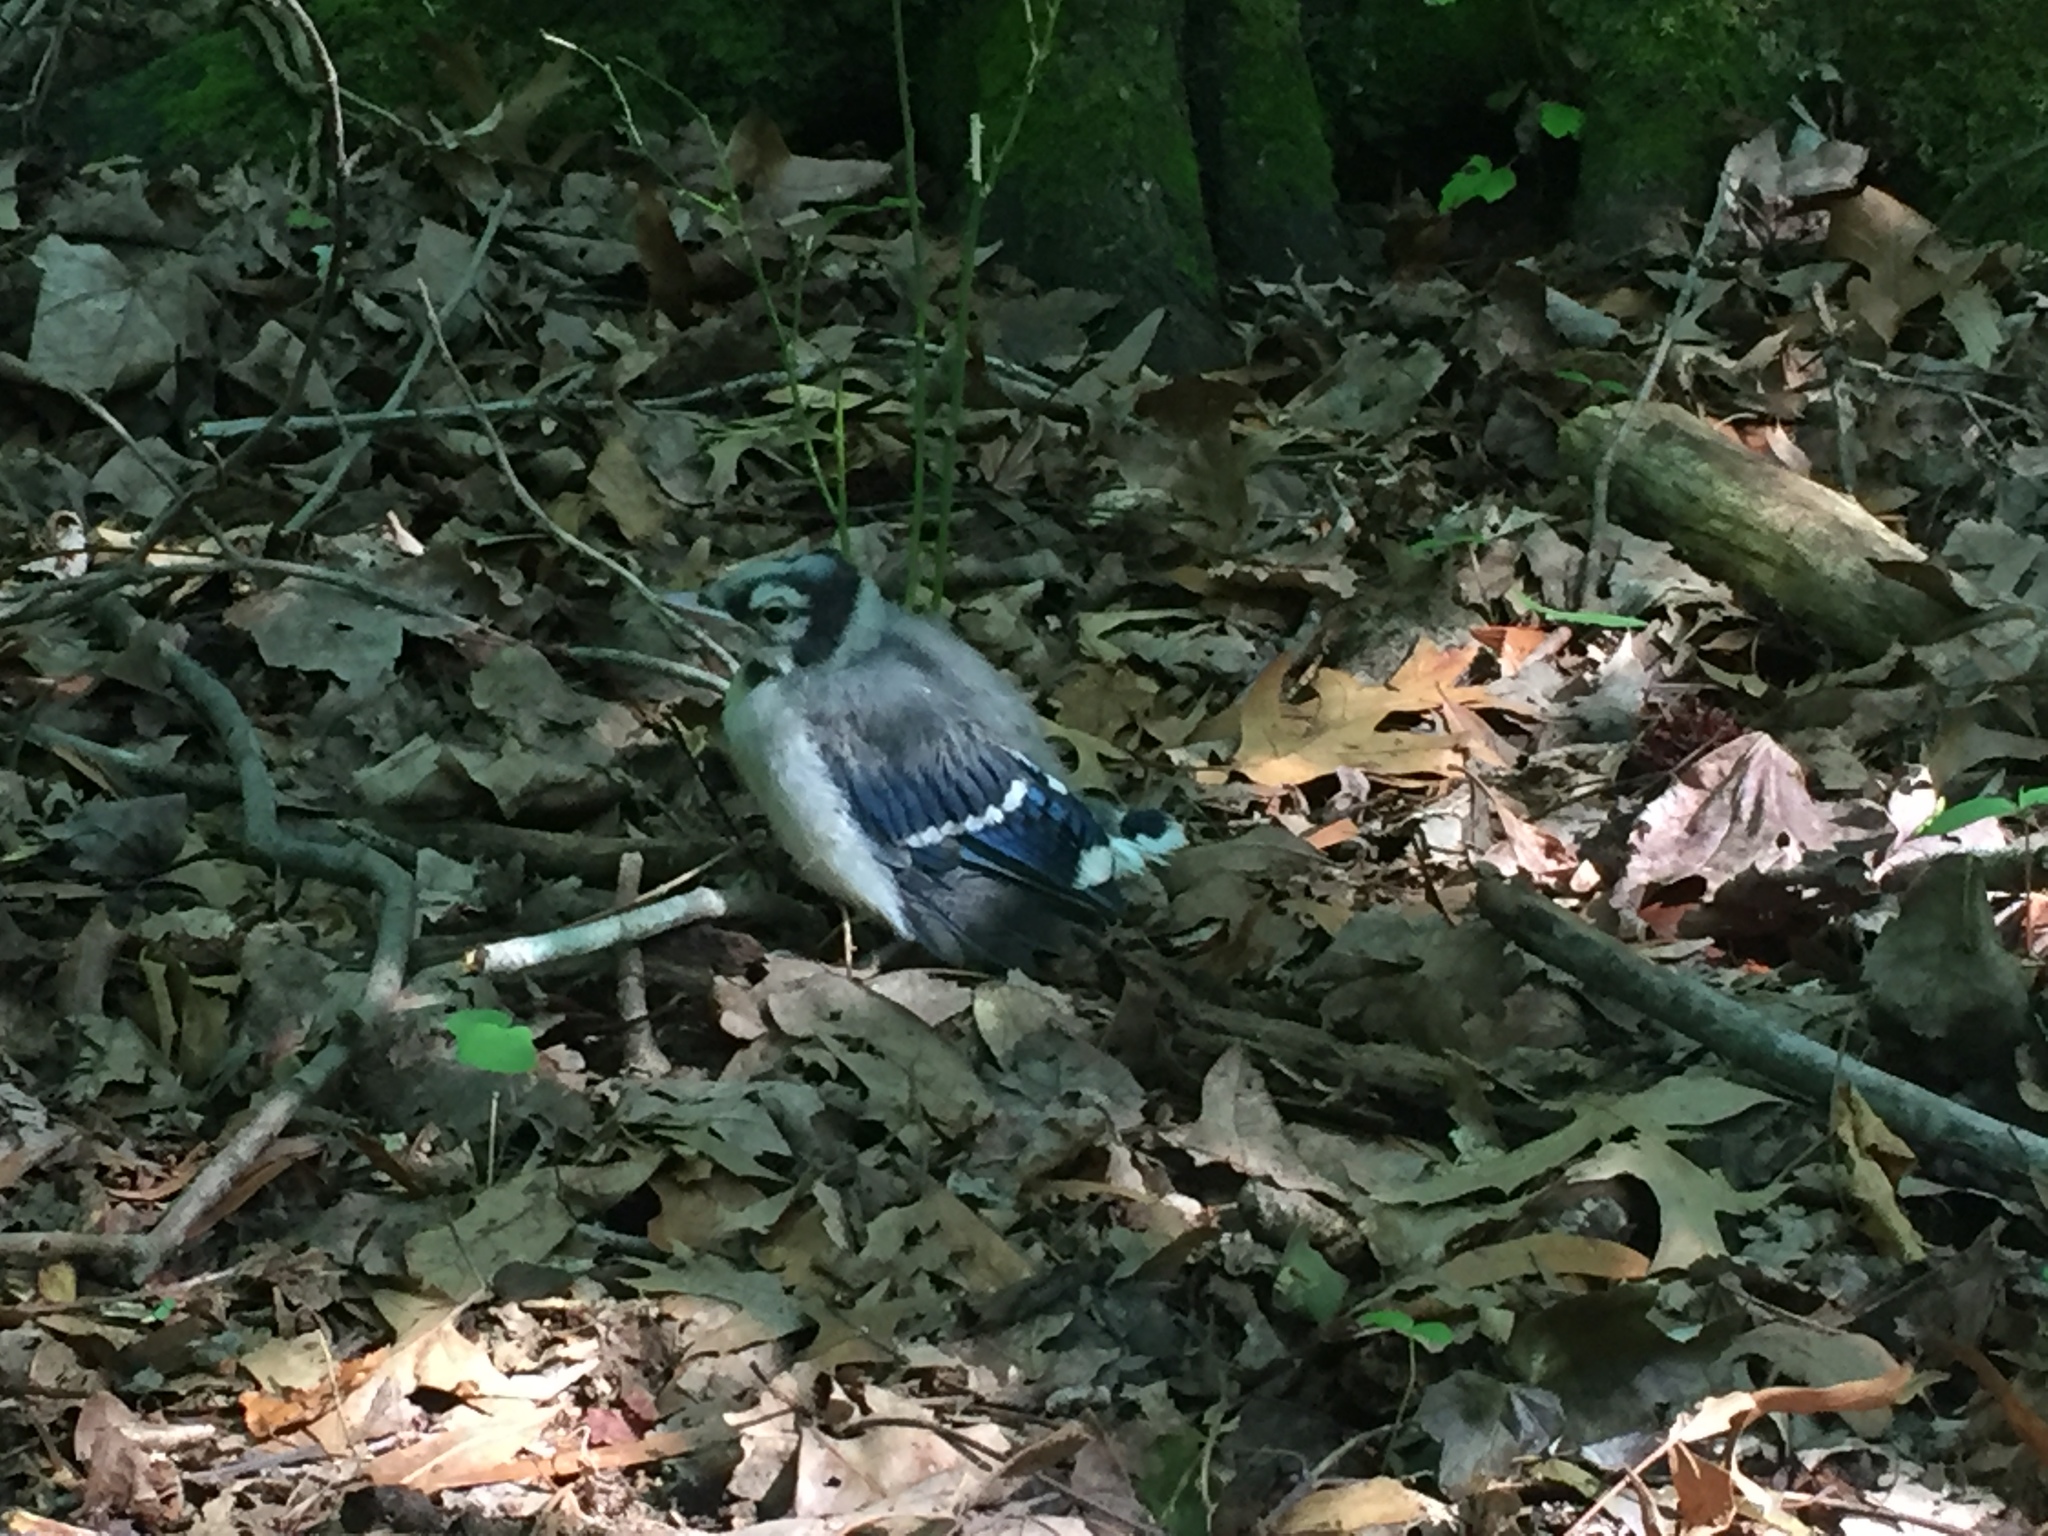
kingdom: Animalia
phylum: Chordata
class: Aves
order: Passeriformes
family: Corvidae
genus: Cyanocitta
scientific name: Cyanocitta cristata
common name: Blue jay
